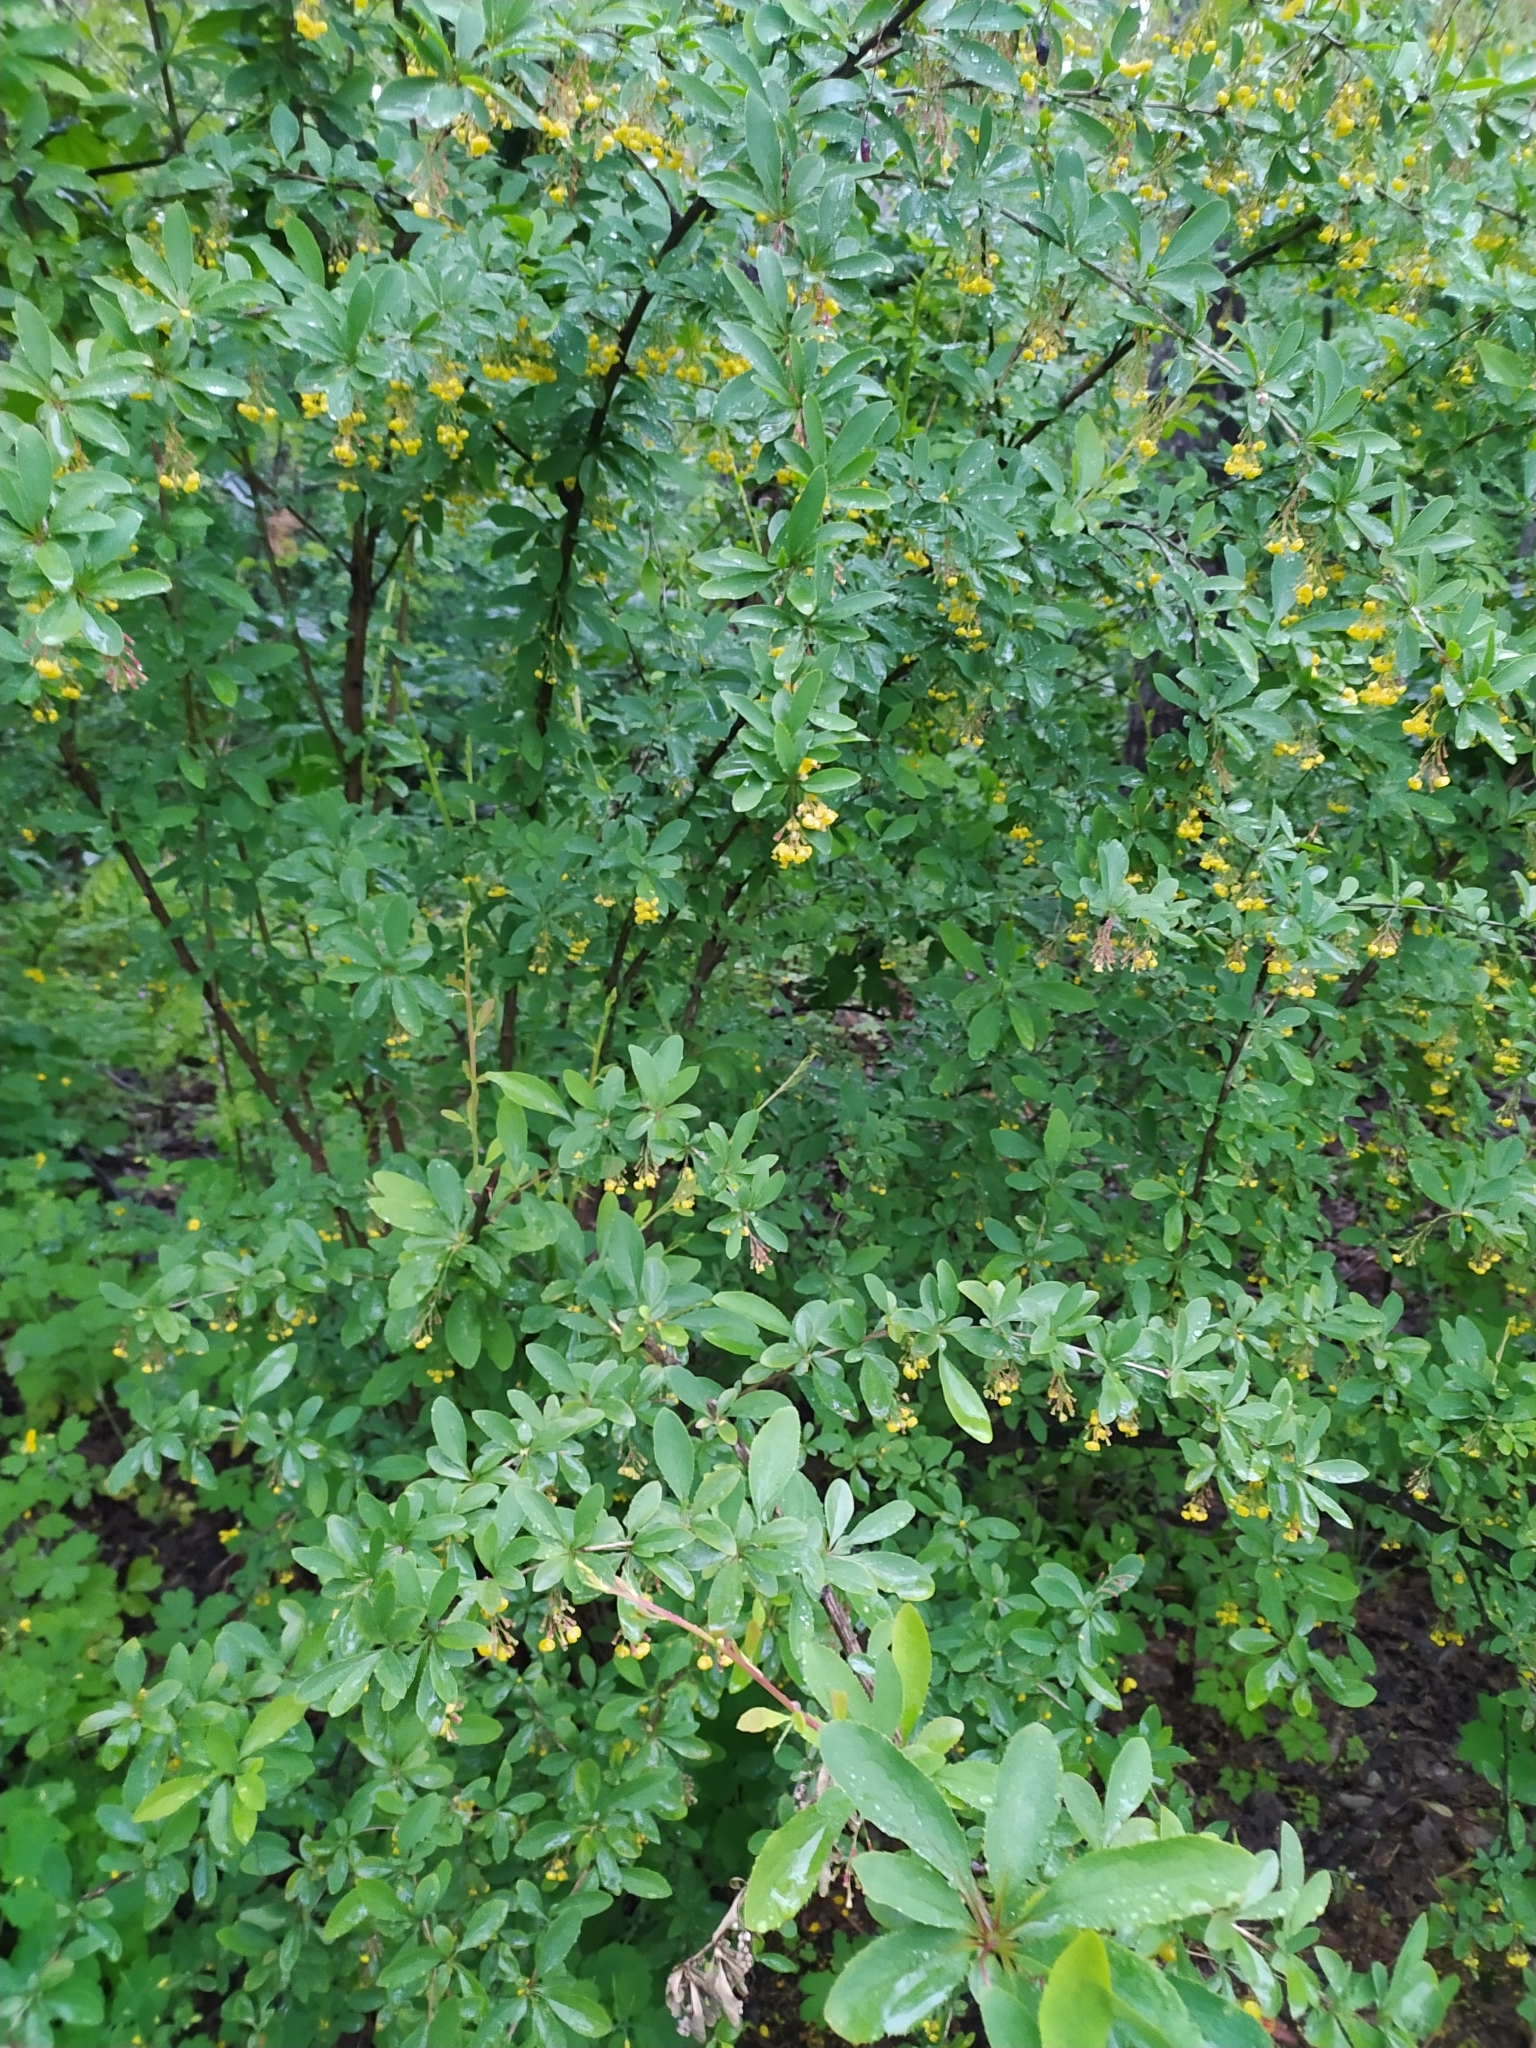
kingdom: Plantae
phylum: Tracheophyta
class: Magnoliopsida
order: Ranunculales
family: Berberidaceae
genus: Berberis
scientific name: Berberis vulgaris
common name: Barberry
